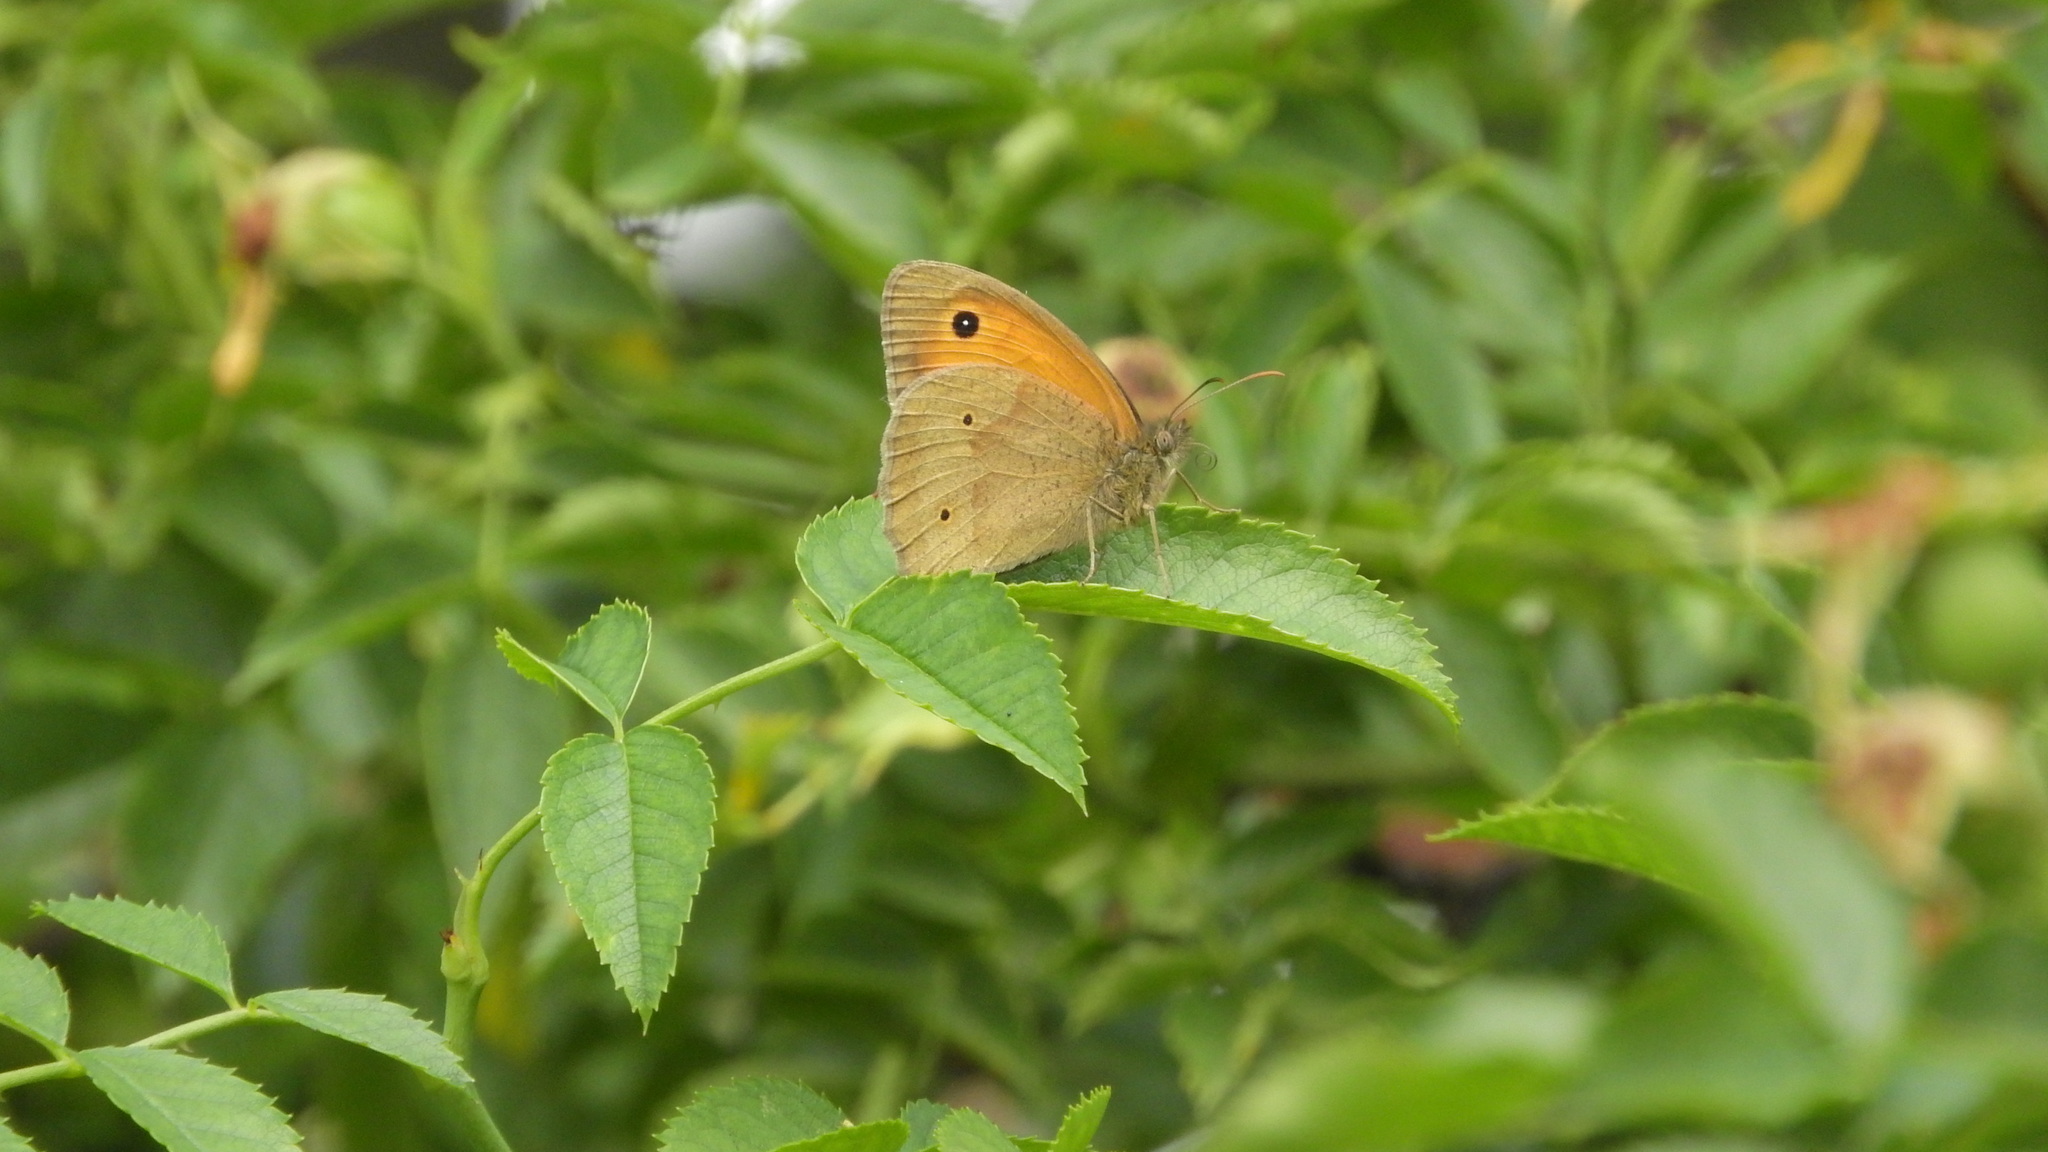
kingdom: Animalia
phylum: Arthropoda
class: Insecta
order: Lepidoptera
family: Nymphalidae
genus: Maniola
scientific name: Maniola jurtina
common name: Meadow brown
